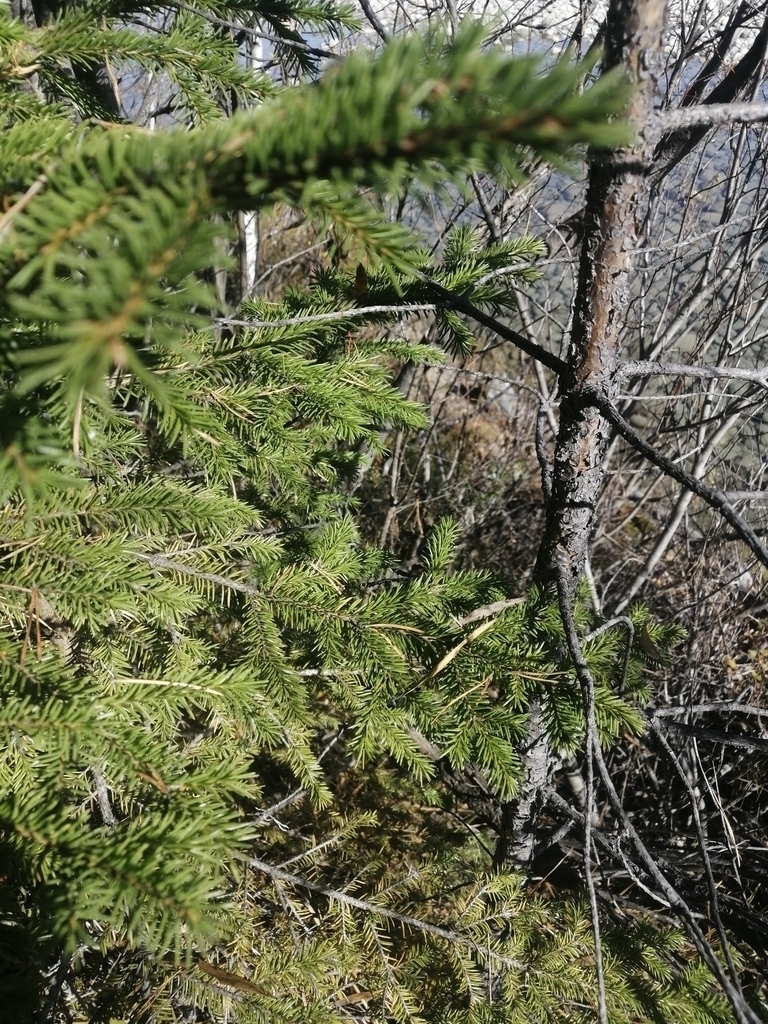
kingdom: Plantae
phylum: Tracheophyta
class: Pinopsida
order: Pinales
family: Pinaceae
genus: Pinus
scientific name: Pinus sylvestris
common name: Scots pine
